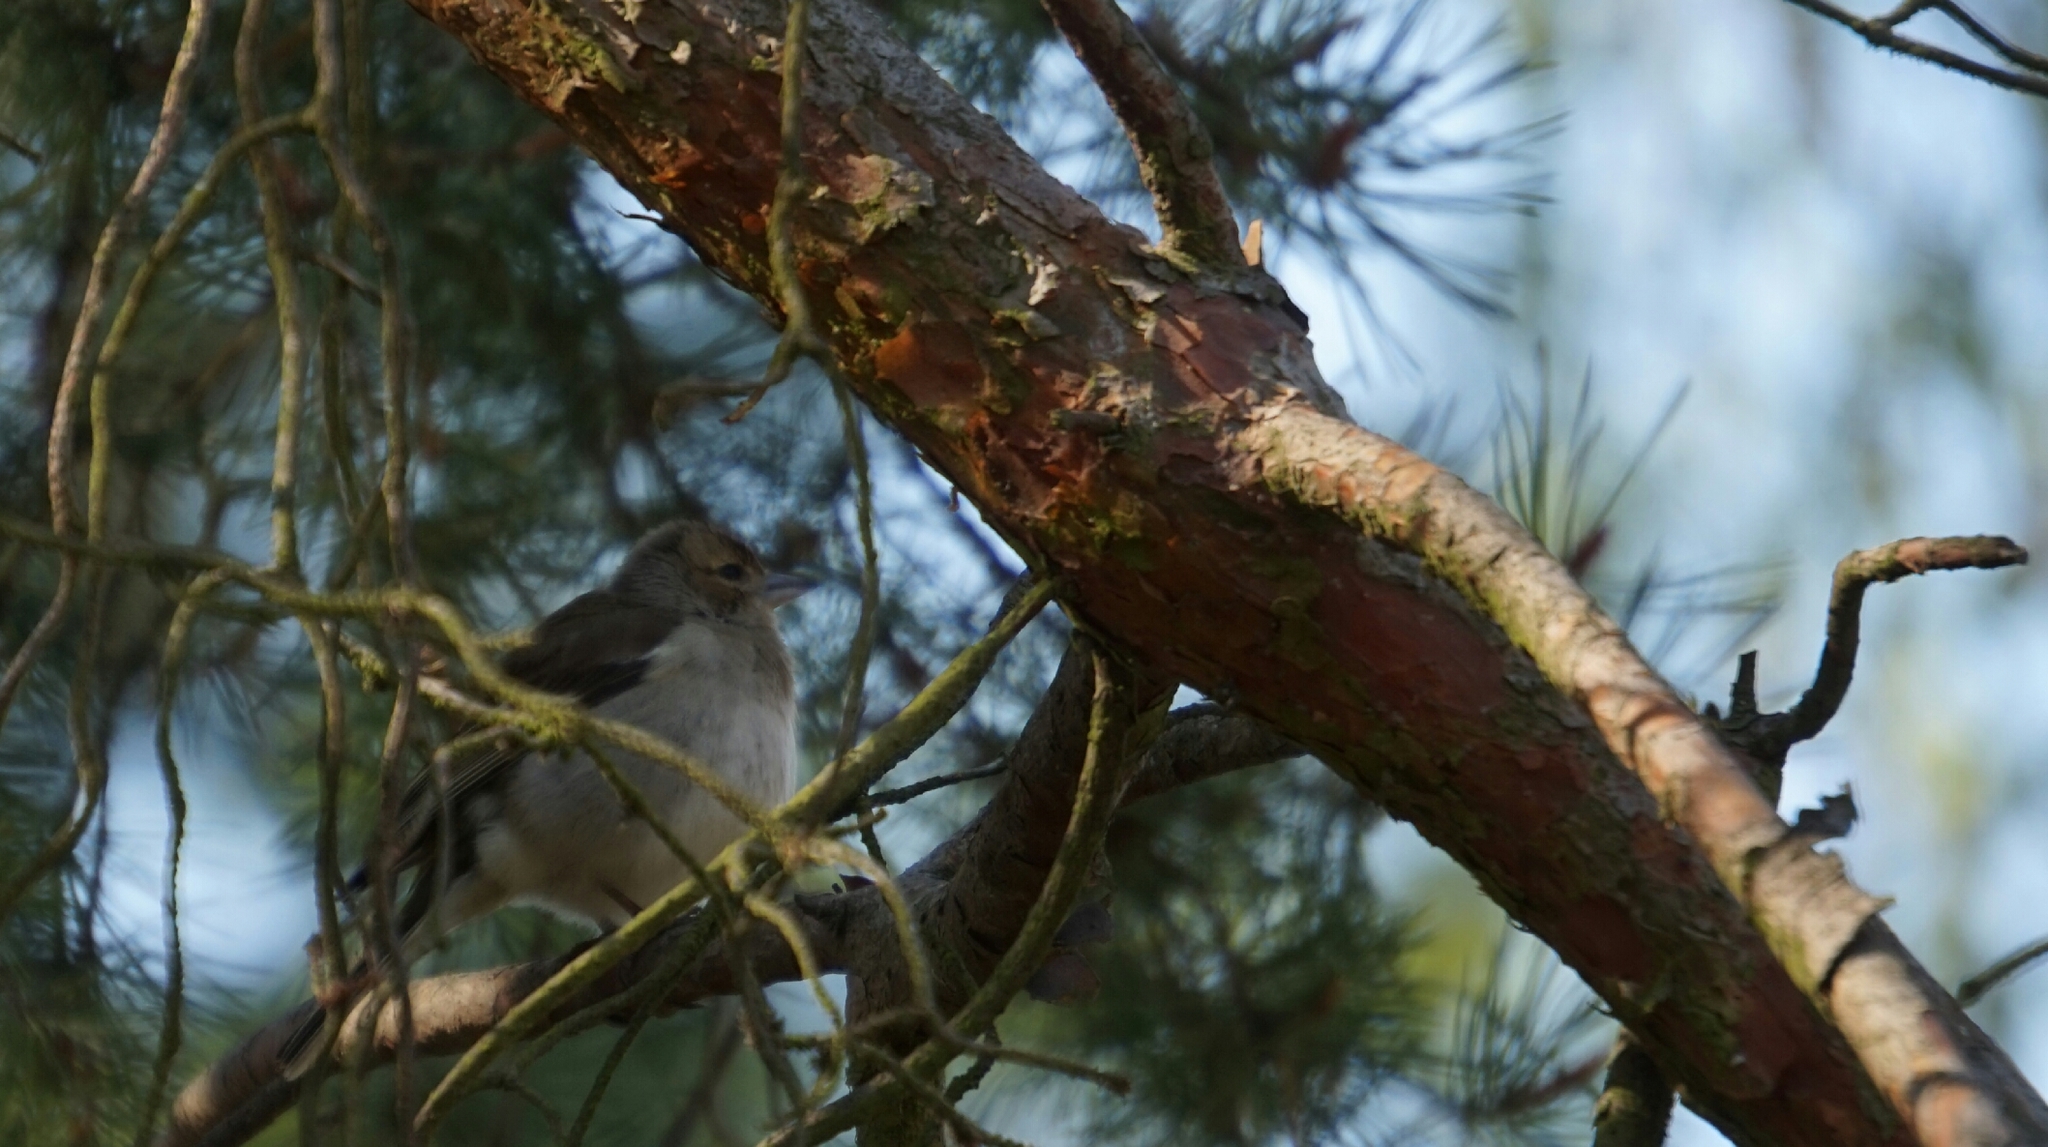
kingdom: Animalia
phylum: Chordata
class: Aves
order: Passeriformes
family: Fringillidae
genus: Fringilla
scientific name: Fringilla coelebs
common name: Common chaffinch
